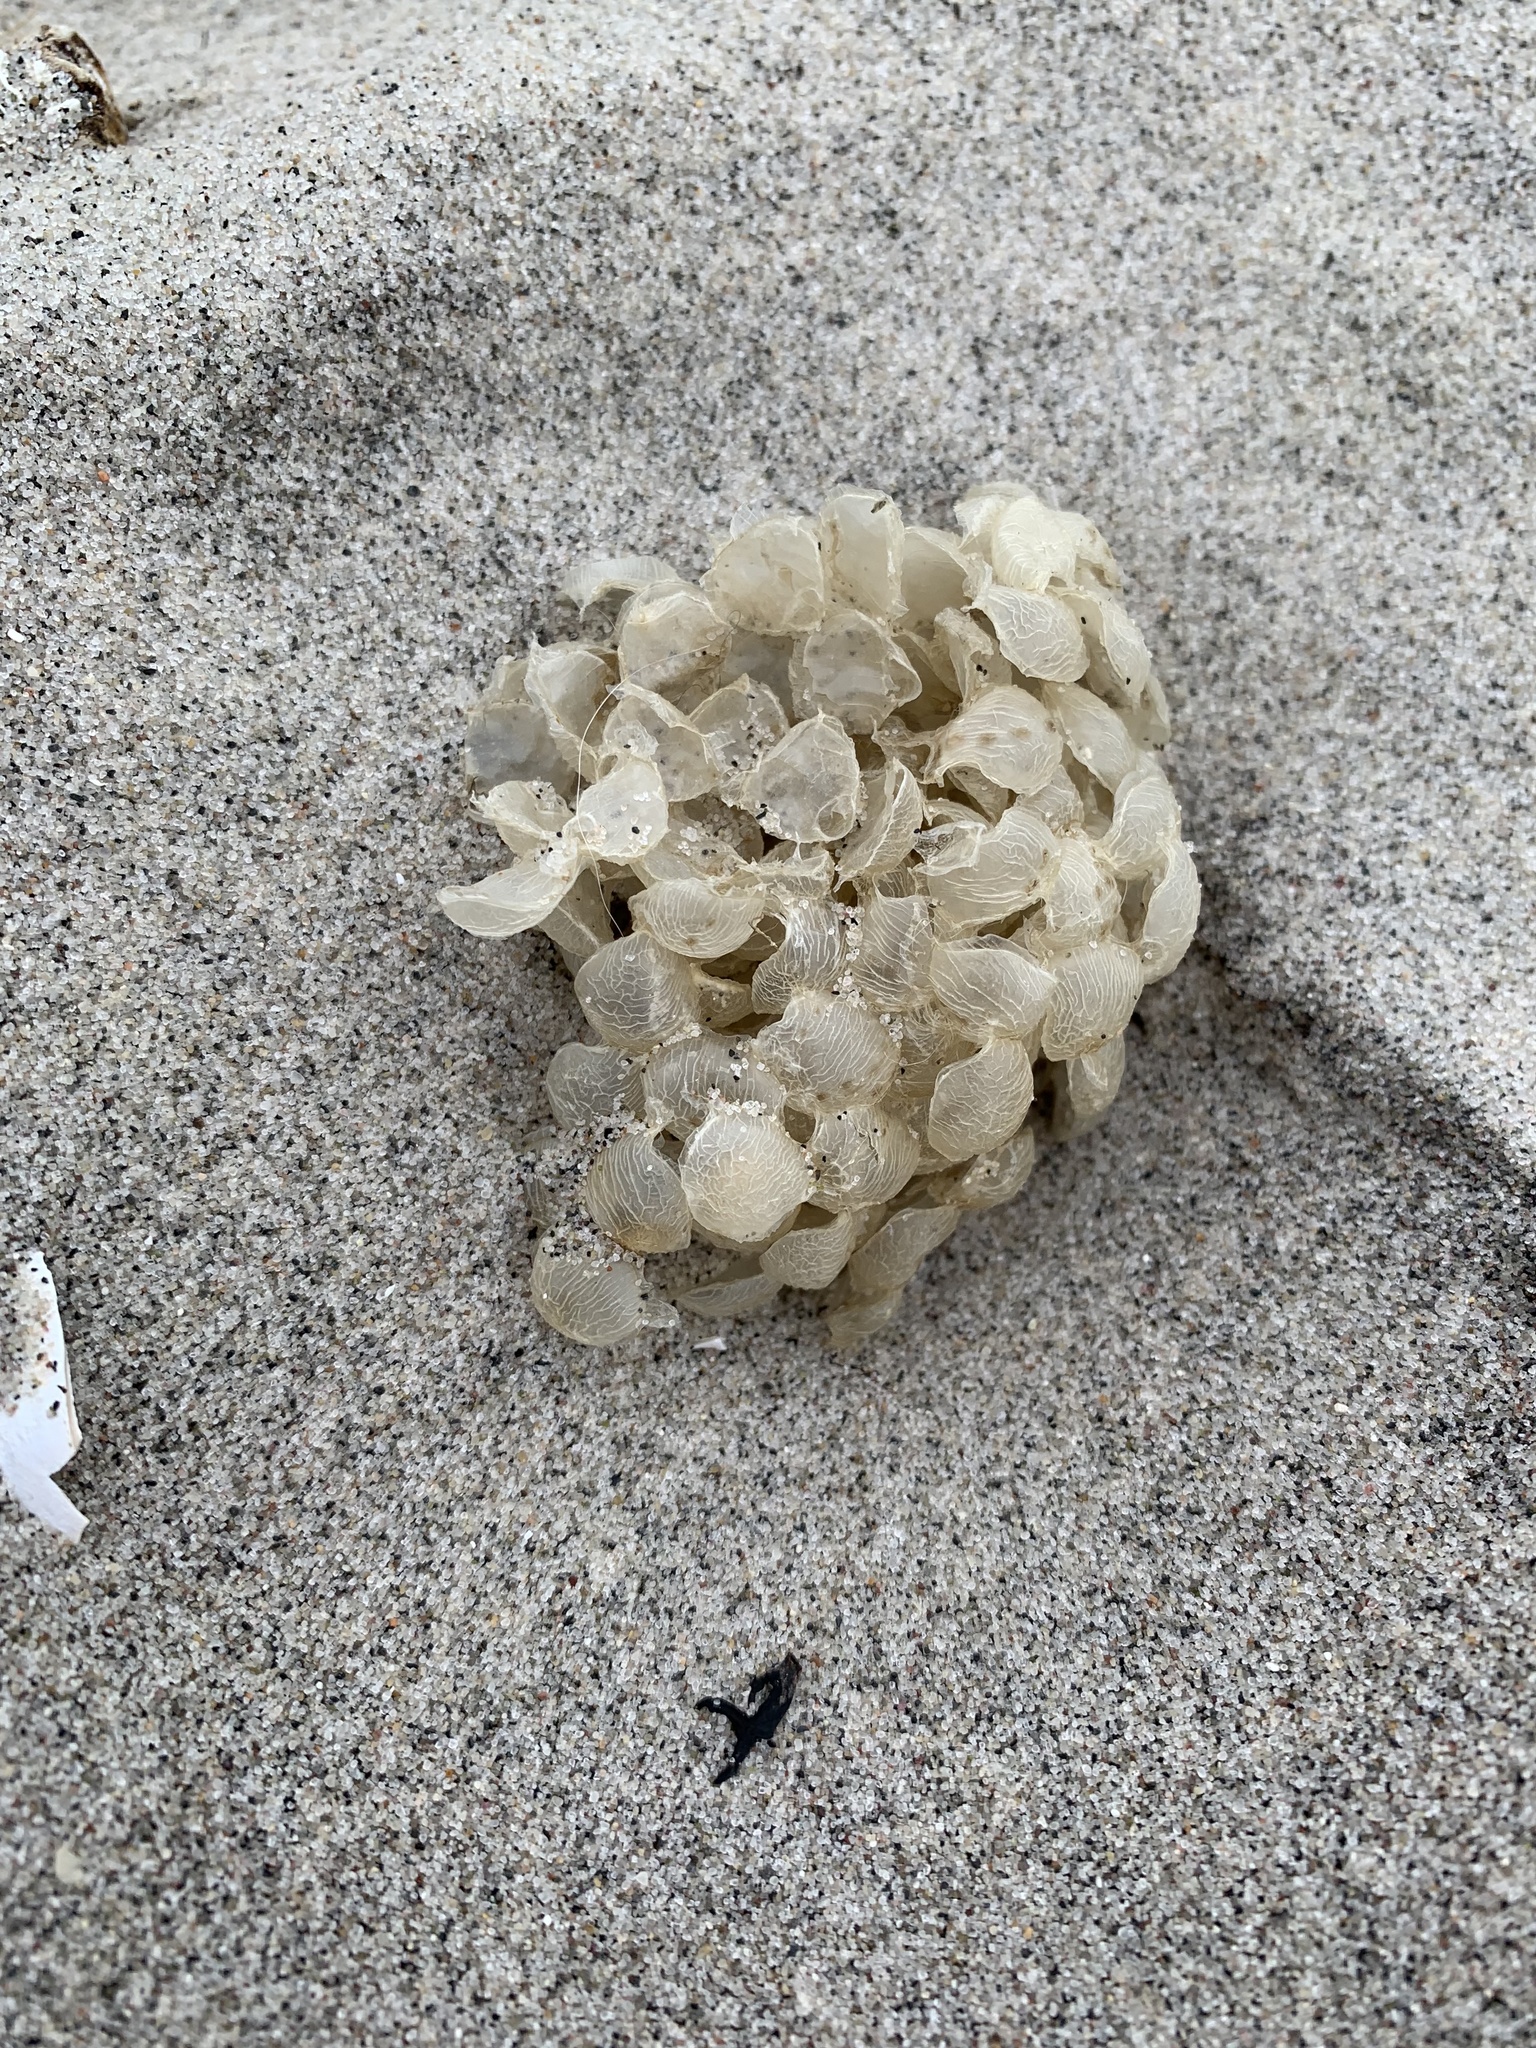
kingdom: Animalia
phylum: Mollusca
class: Gastropoda
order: Neogastropoda
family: Buccinidae
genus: Buccinum
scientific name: Buccinum undatum
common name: Common whelk
